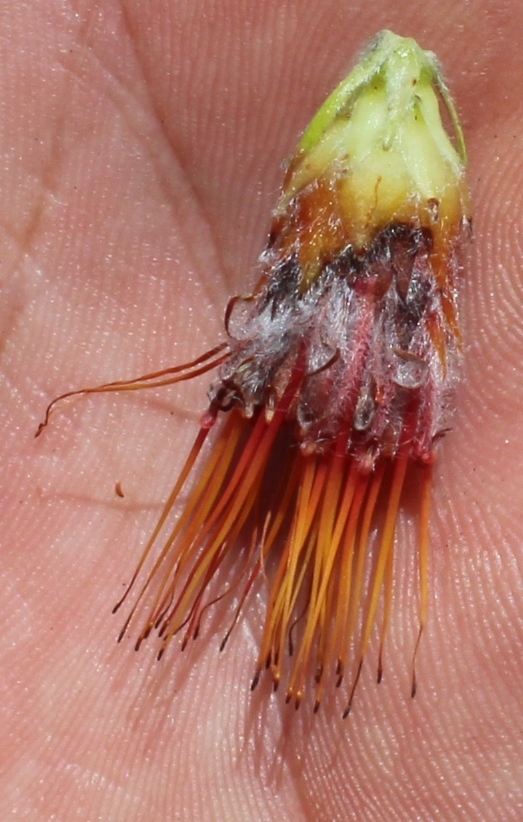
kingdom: Plantae
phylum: Tracheophyta
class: Magnoliopsida
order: Proteales
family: Proteaceae
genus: Leucospermum
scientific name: Leucospermum oleifolium
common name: Matches
